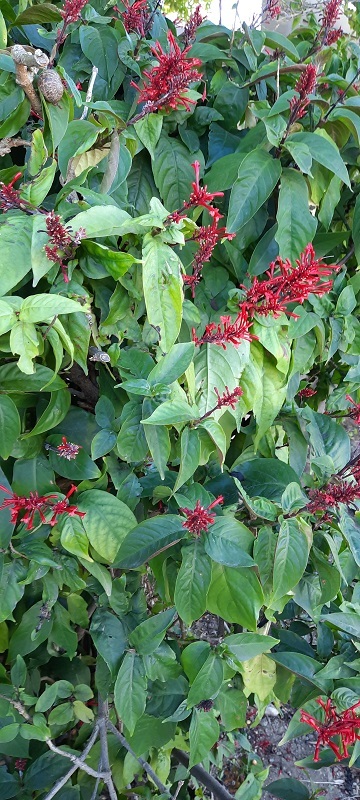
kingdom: Plantae
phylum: Tracheophyta
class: Magnoliopsida
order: Lamiales
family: Acanthaceae
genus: Odontonema
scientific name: Odontonema tubaeforme
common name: Firespike
